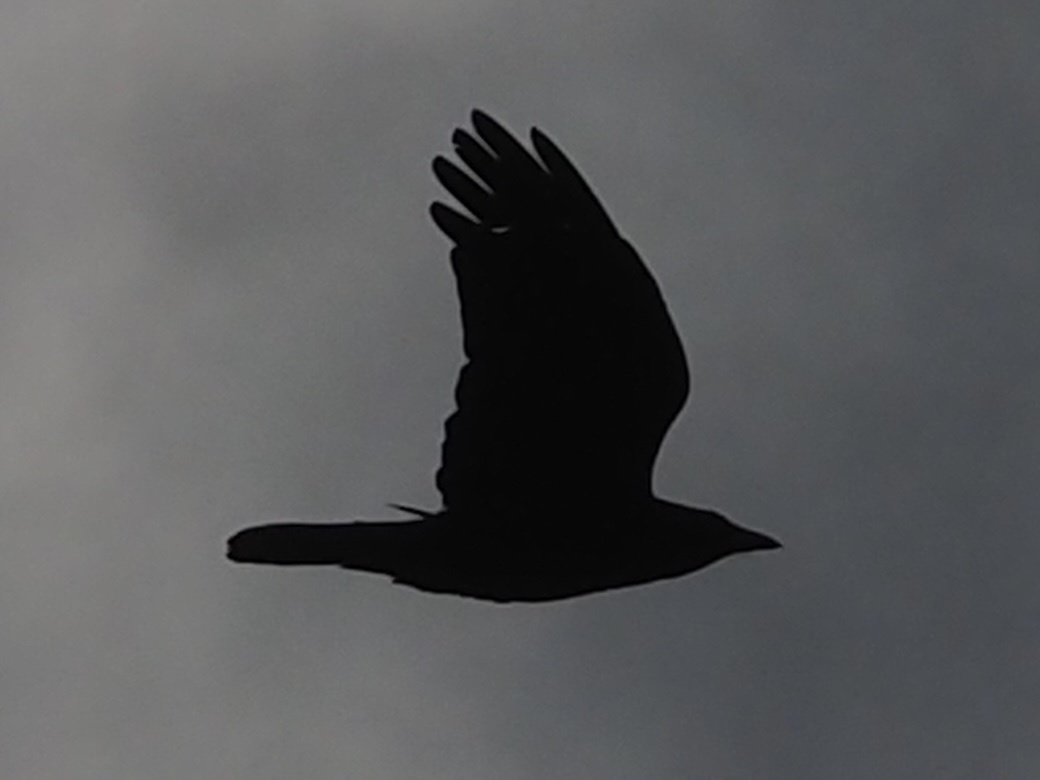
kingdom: Animalia
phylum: Chordata
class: Aves
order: Passeriformes
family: Corvidae
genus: Corvus
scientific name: Corvus corone
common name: Carrion crow
